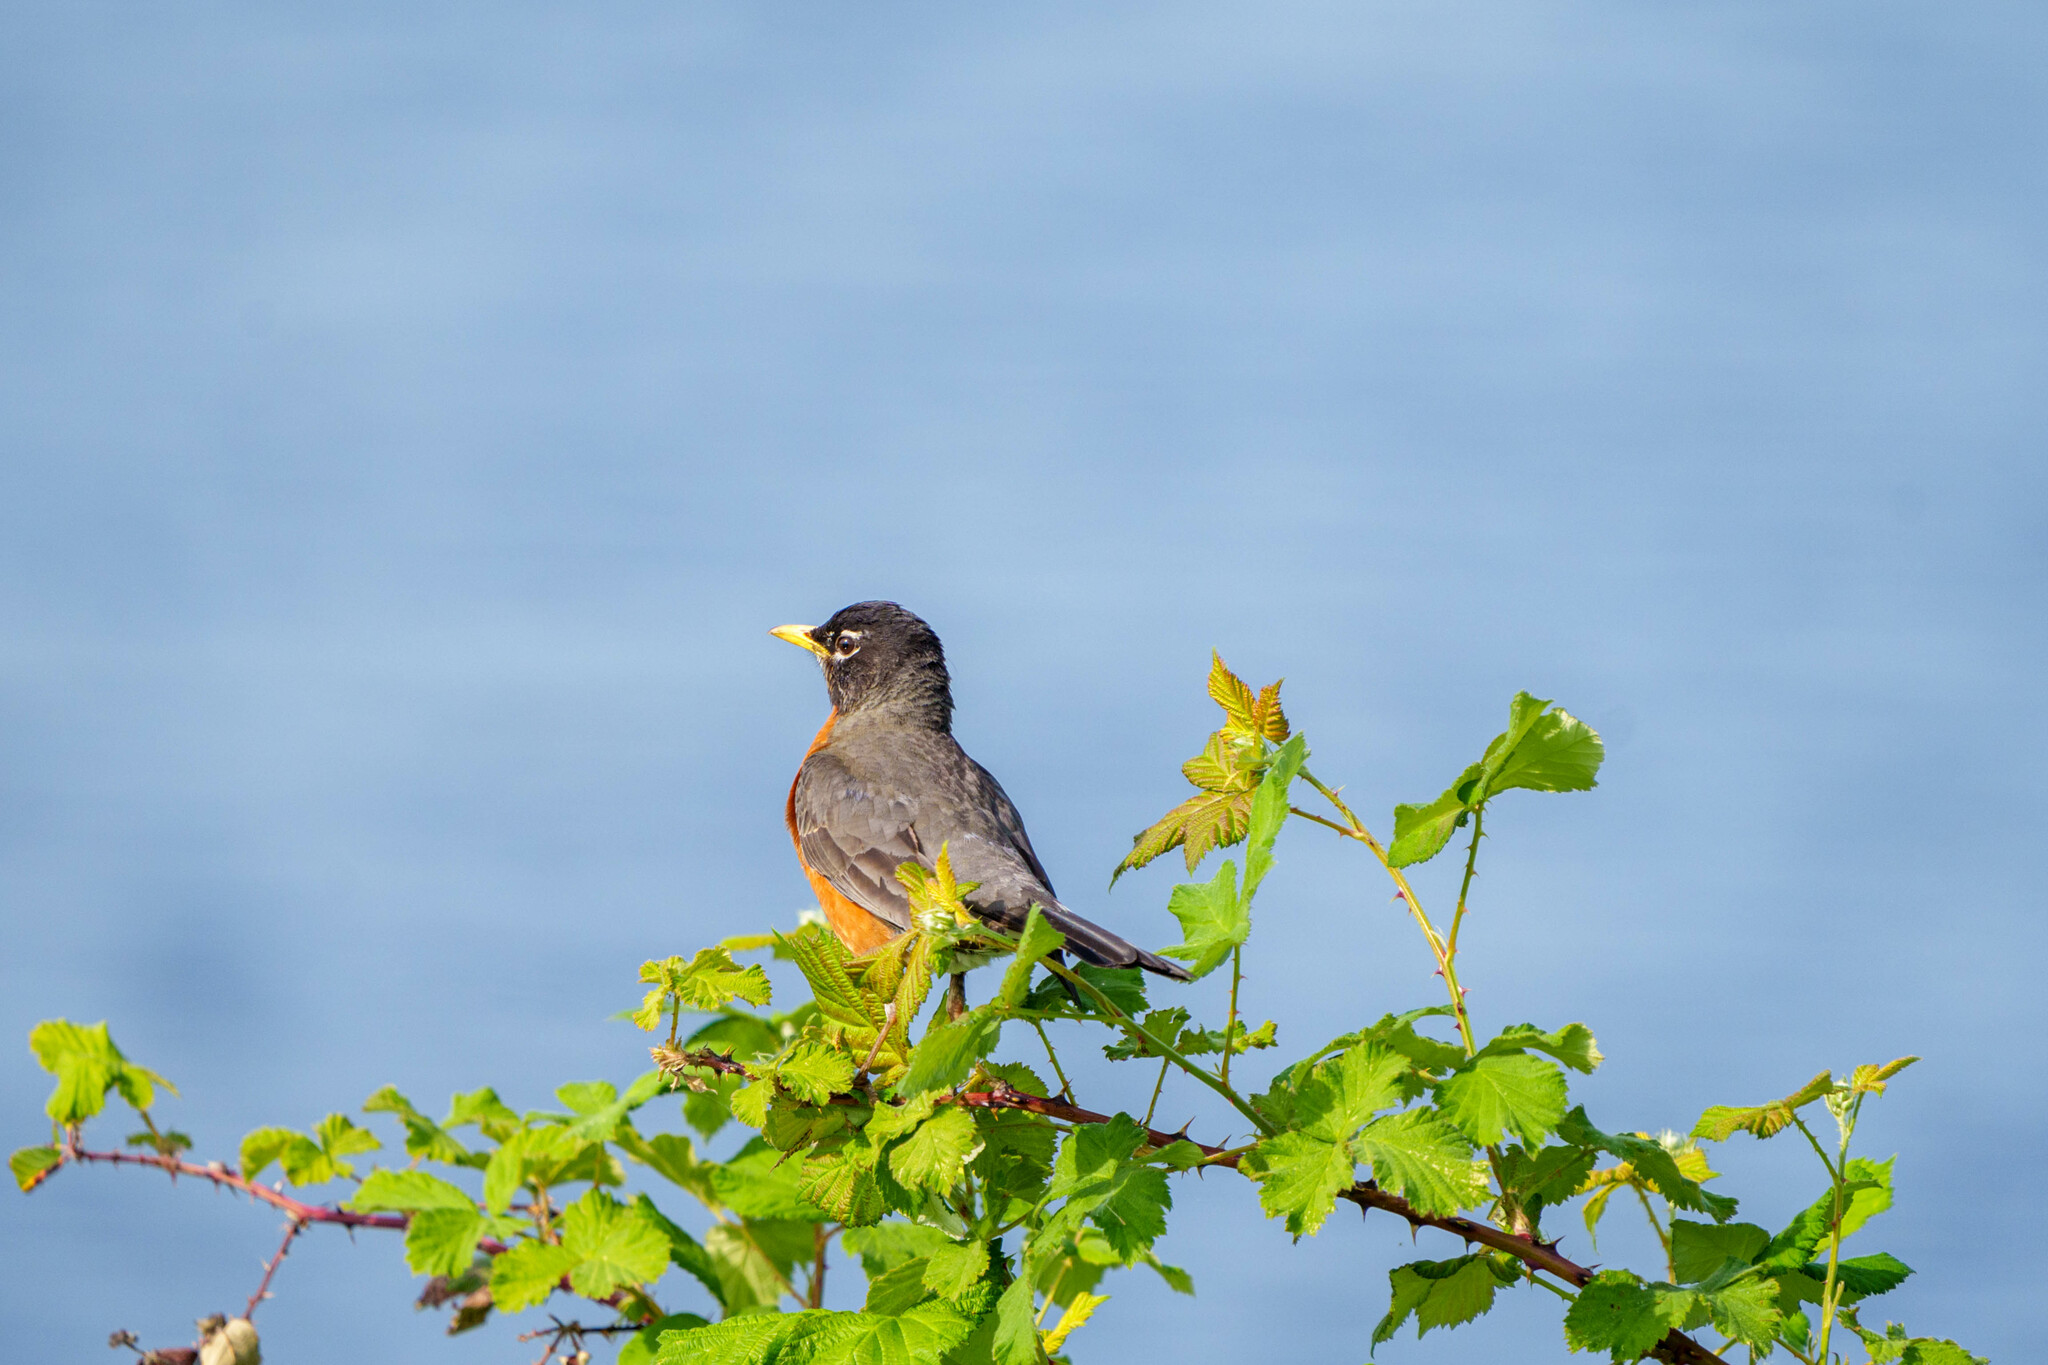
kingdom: Animalia
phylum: Chordata
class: Aves
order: Passeriformes
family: Turdidae
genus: Turdus
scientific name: Turdus migratorius
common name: American robin
